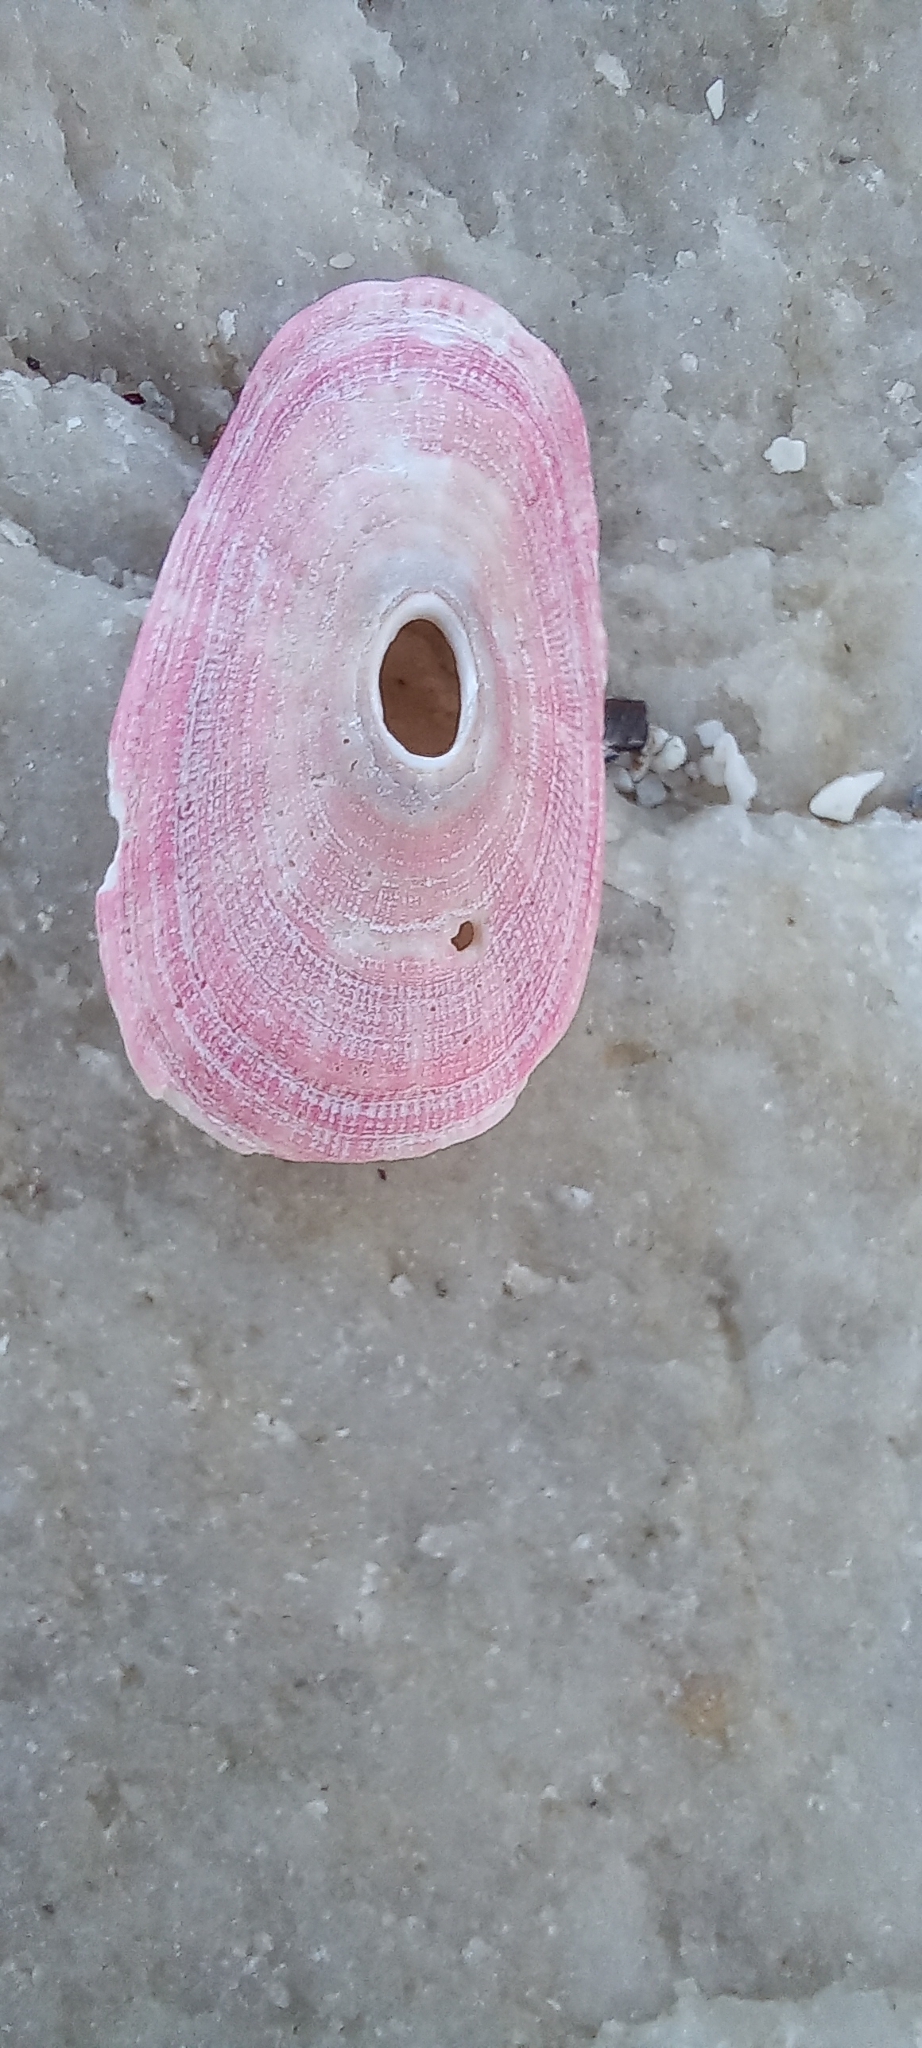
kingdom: Animalia
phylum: Mollusca
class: Gastropoda
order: Lepetellida
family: Fissurellidae
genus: Pupillaea
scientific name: Pupillaea aperta
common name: Mantled keyhole limpet
